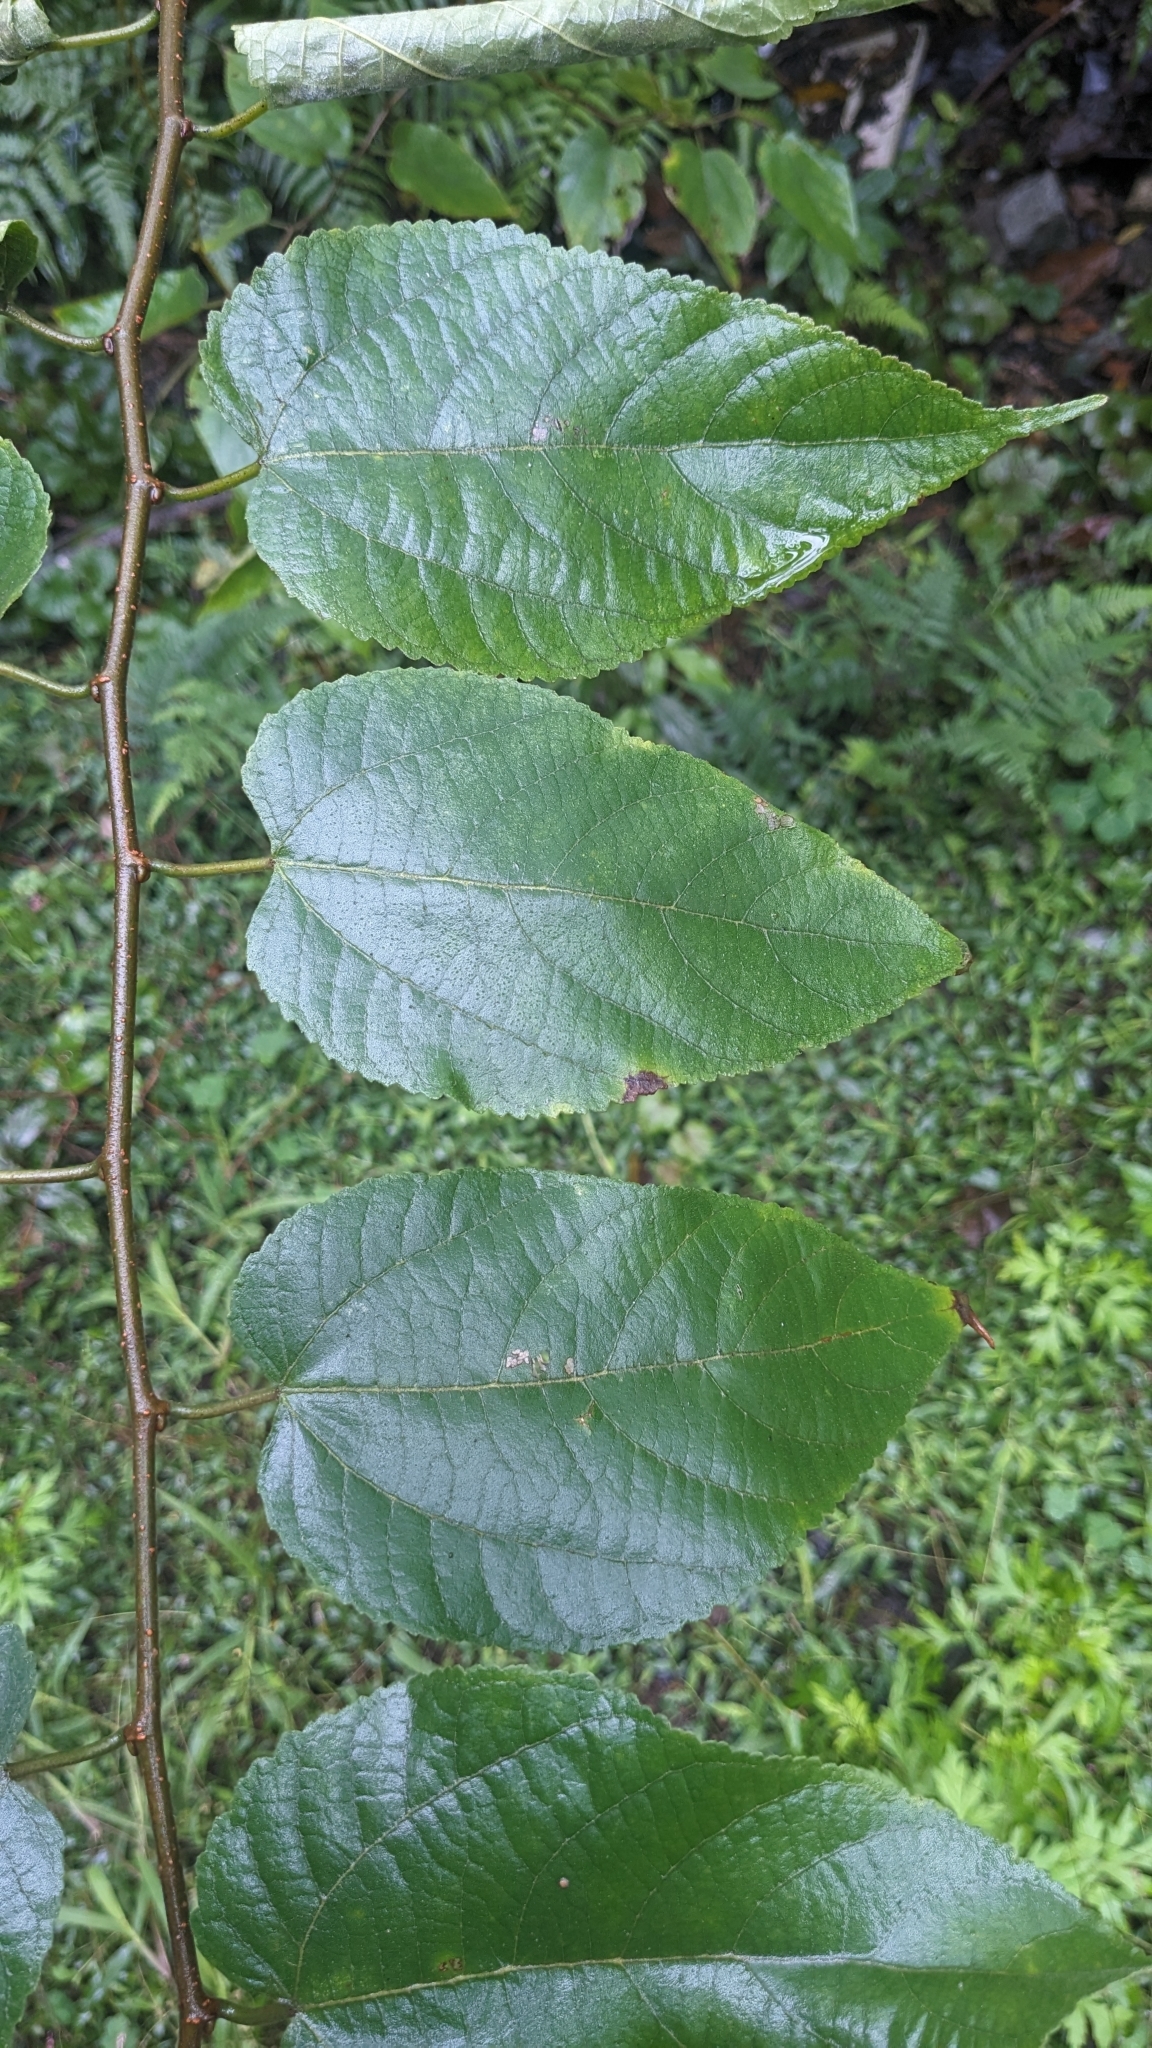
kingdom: Plantae
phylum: Tracheophyta
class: Magnoliopsida
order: Rosales
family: Moraceae
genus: Broussonetia
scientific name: Broussonetia monoica
